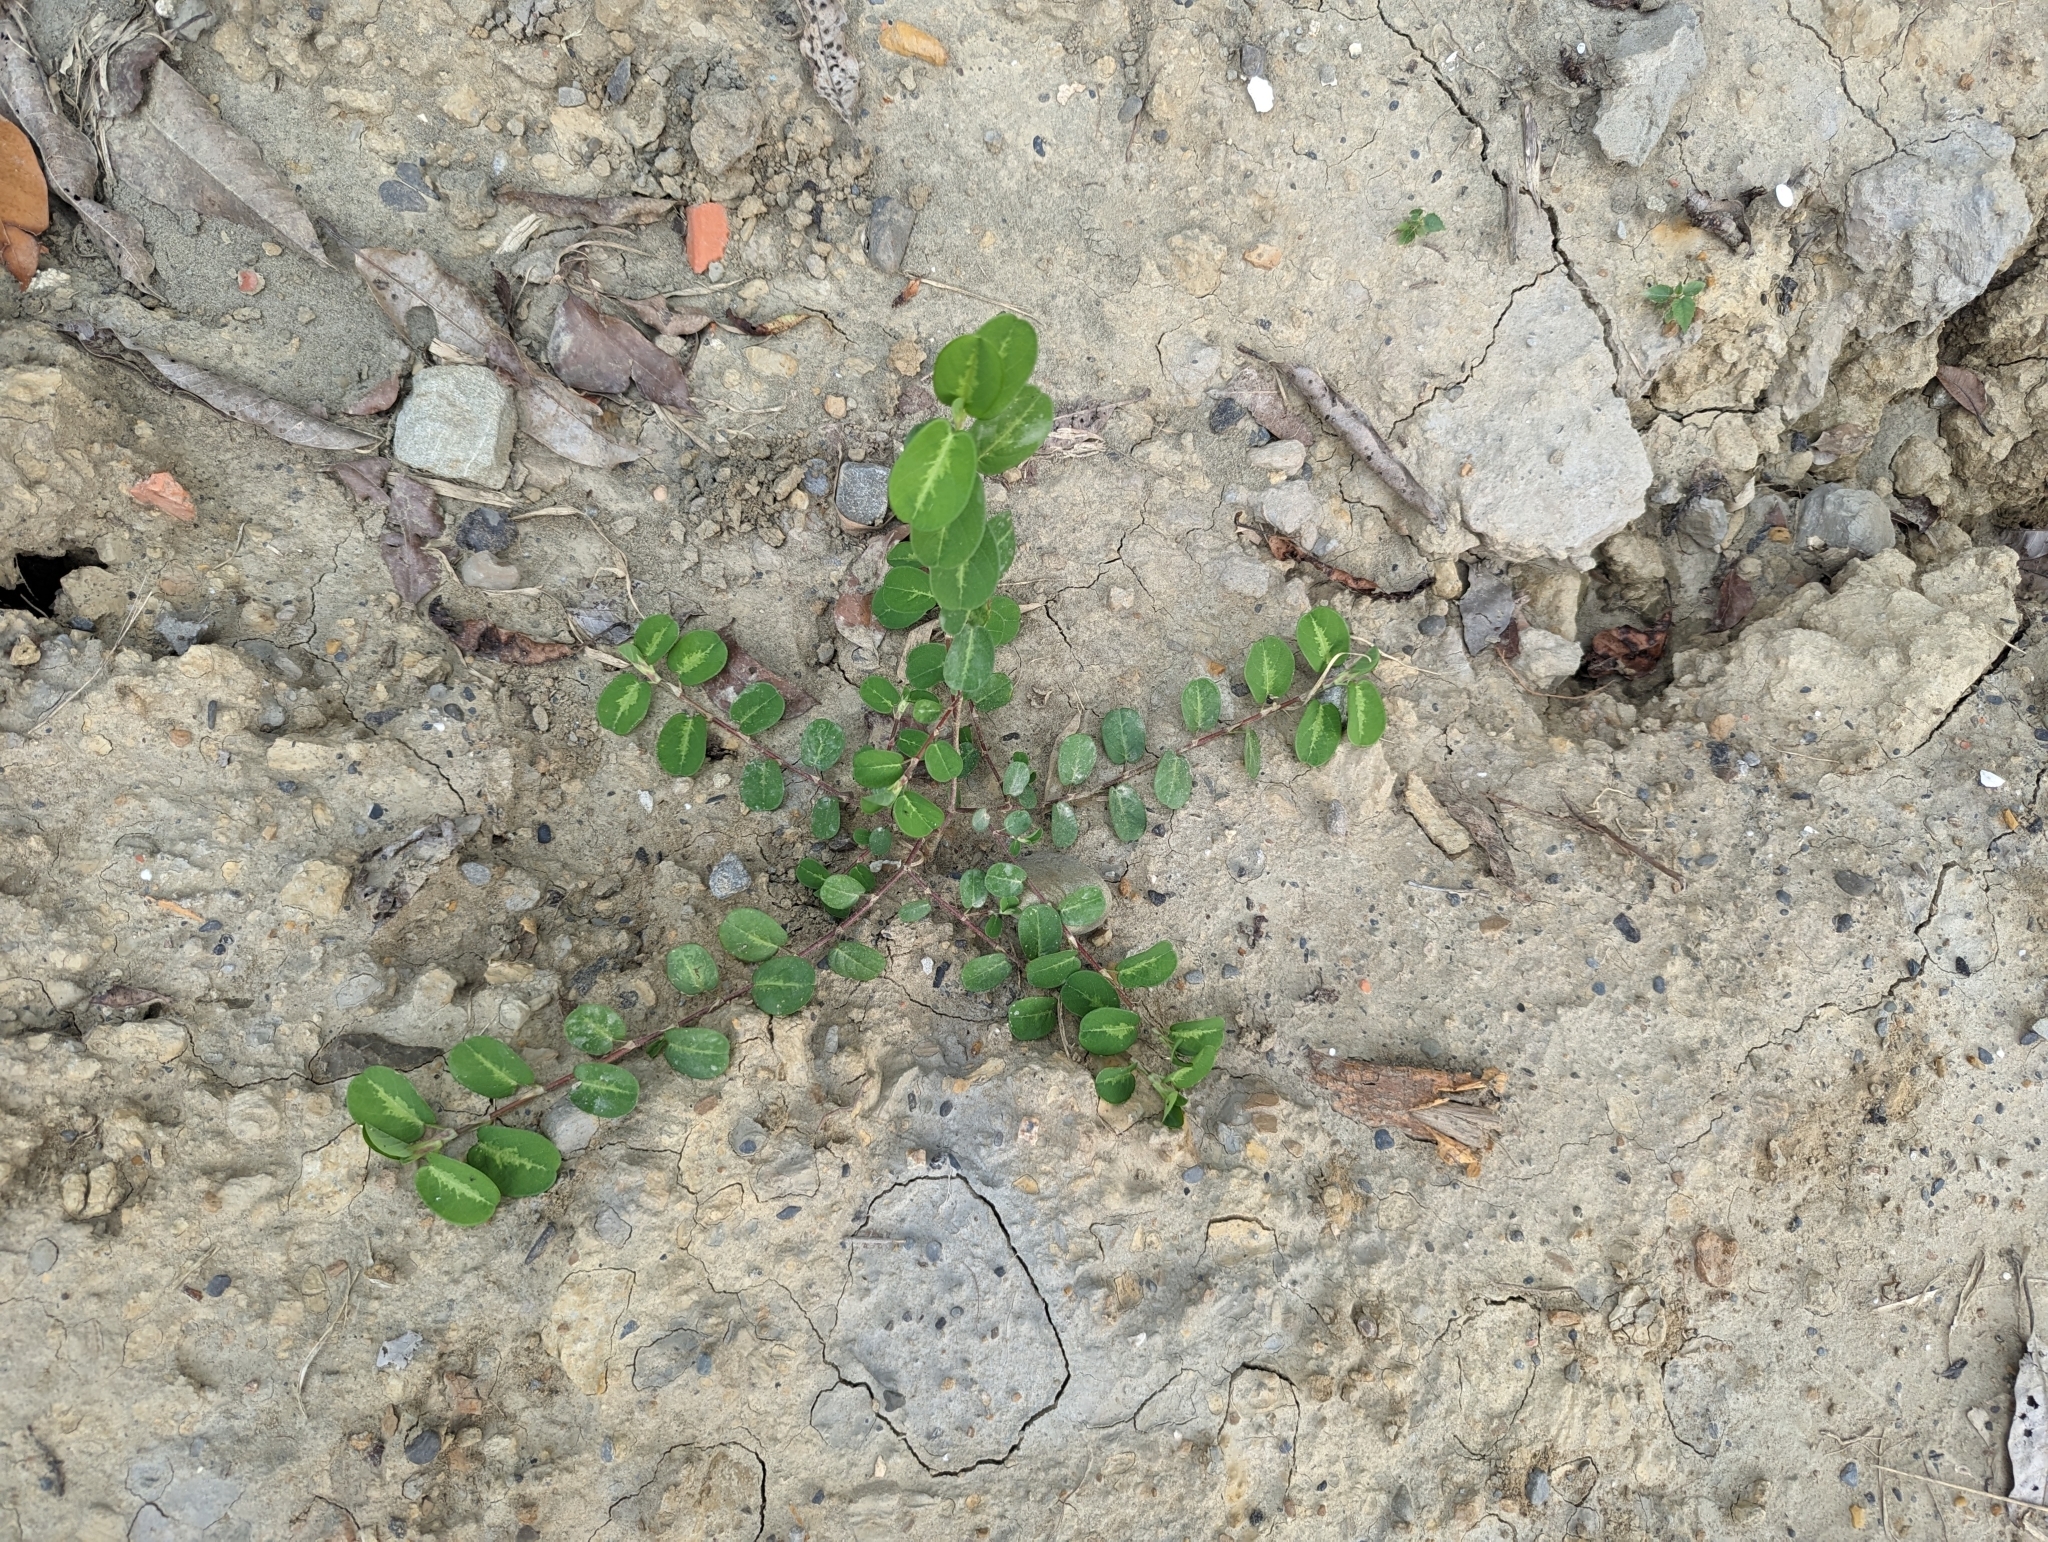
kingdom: Plantae
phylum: Tracheophyta
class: Magnoliopsida
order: Fabales
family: Fabaceae
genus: Alysicarpus
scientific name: Alysicarpus ovalifolius
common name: Alyce clover
